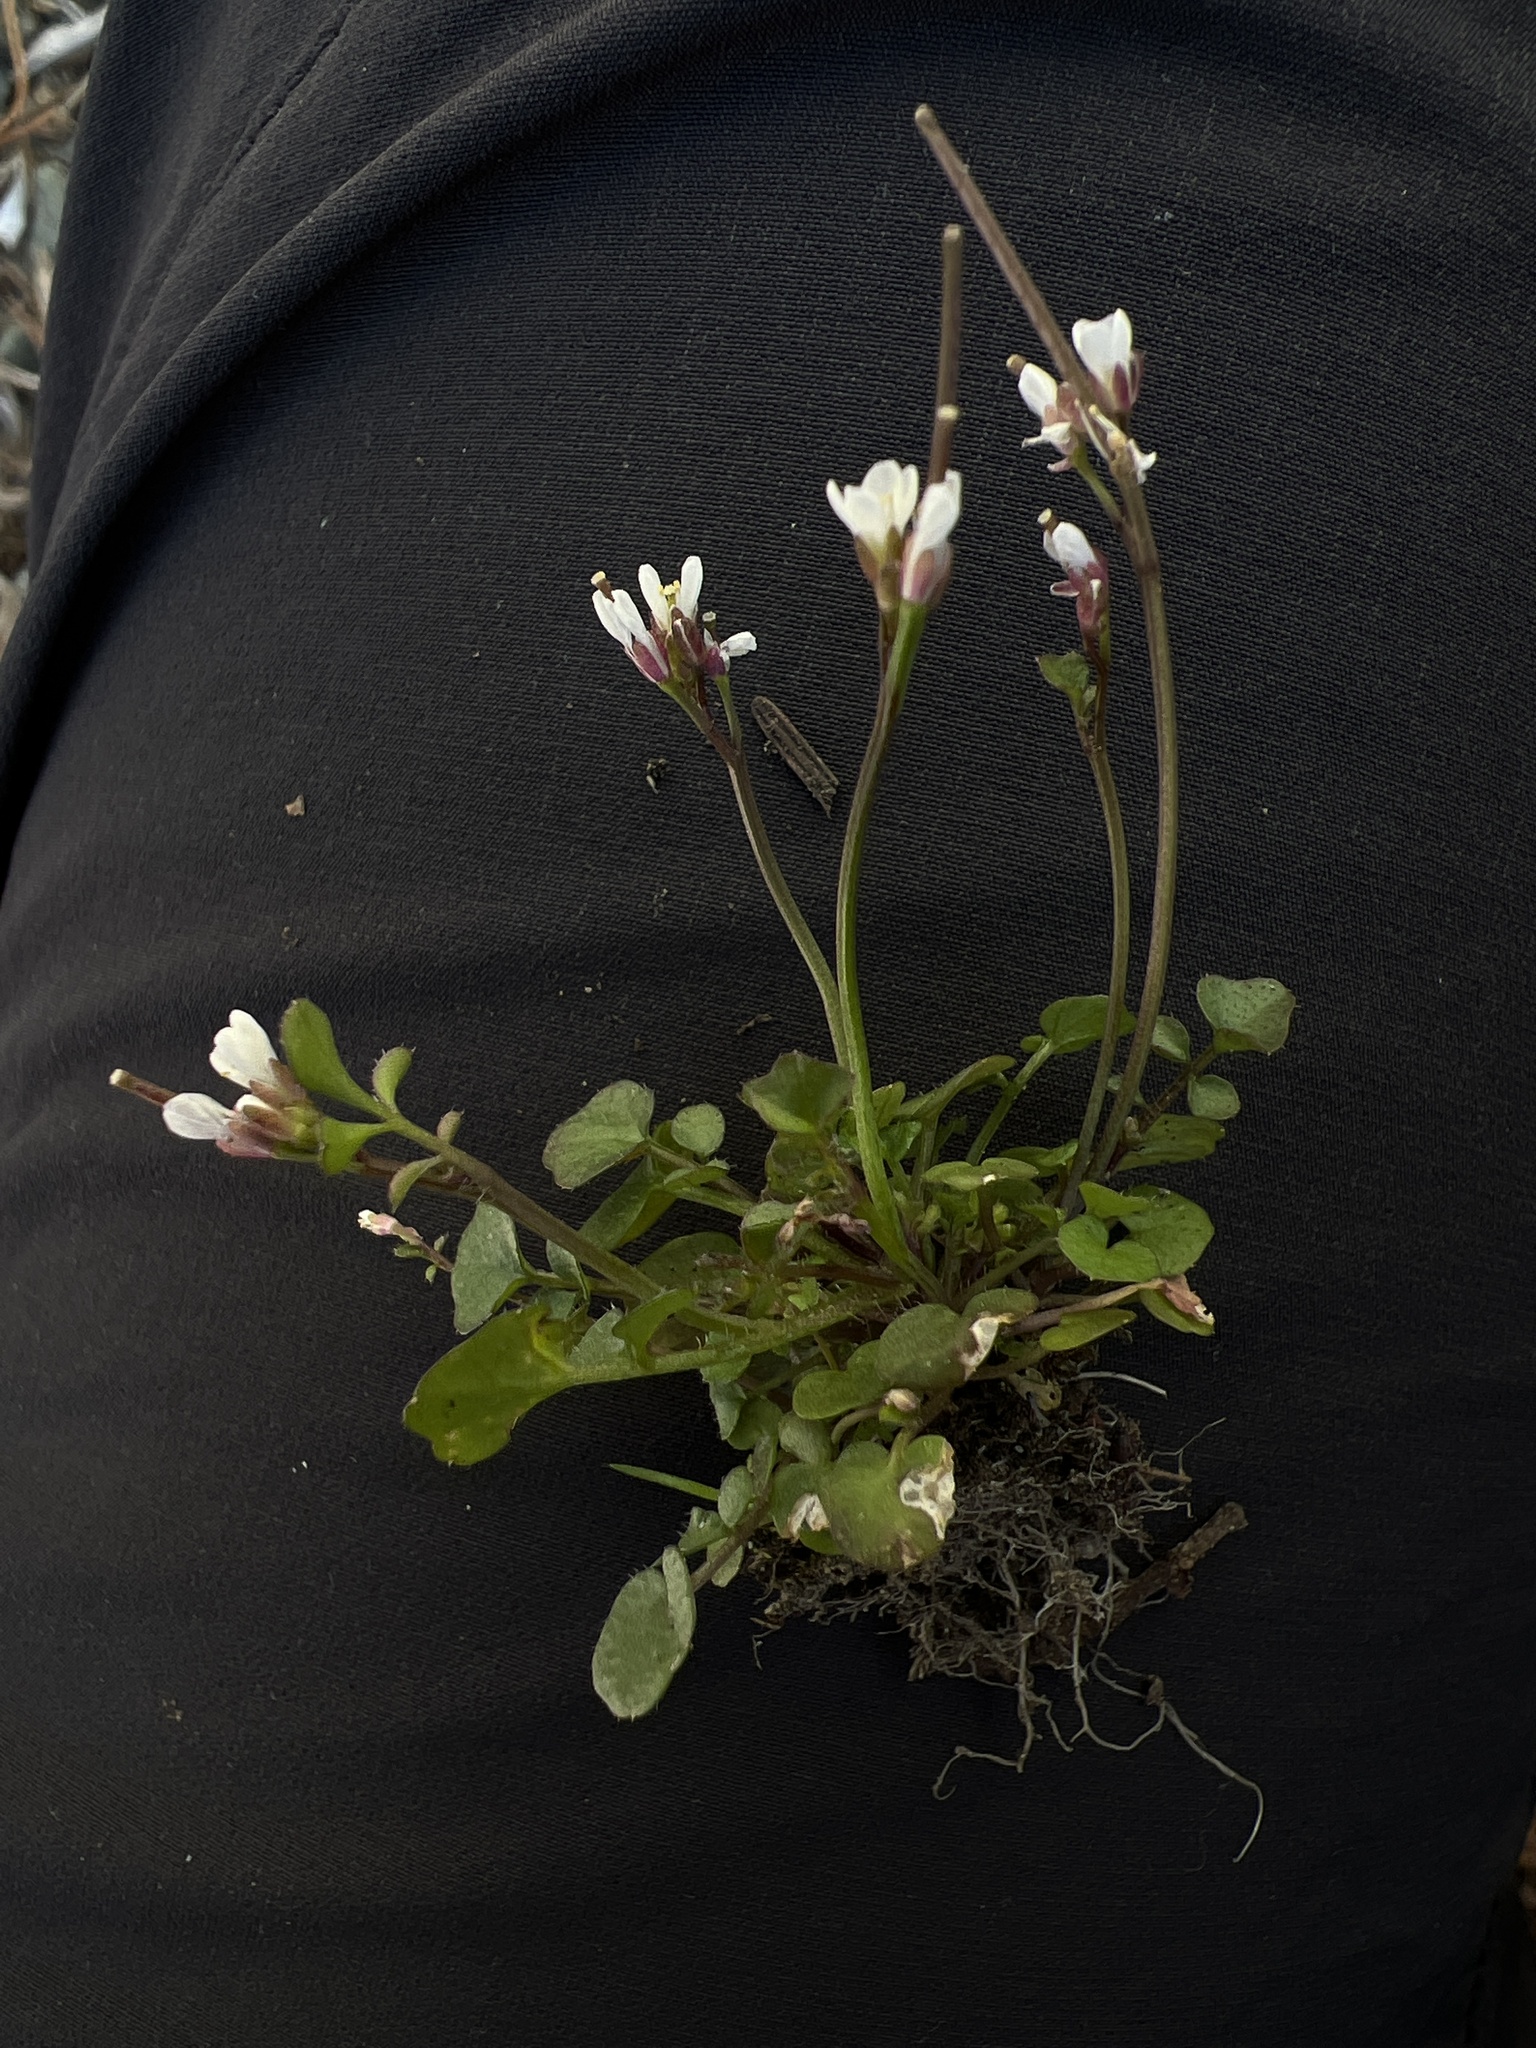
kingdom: Plantae
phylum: Tracheophyta
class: Magnoliopsida
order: Brassicales
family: Brassicaceae
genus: Cardamine
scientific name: Cardamine hirsuta
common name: Hairy bittercress
